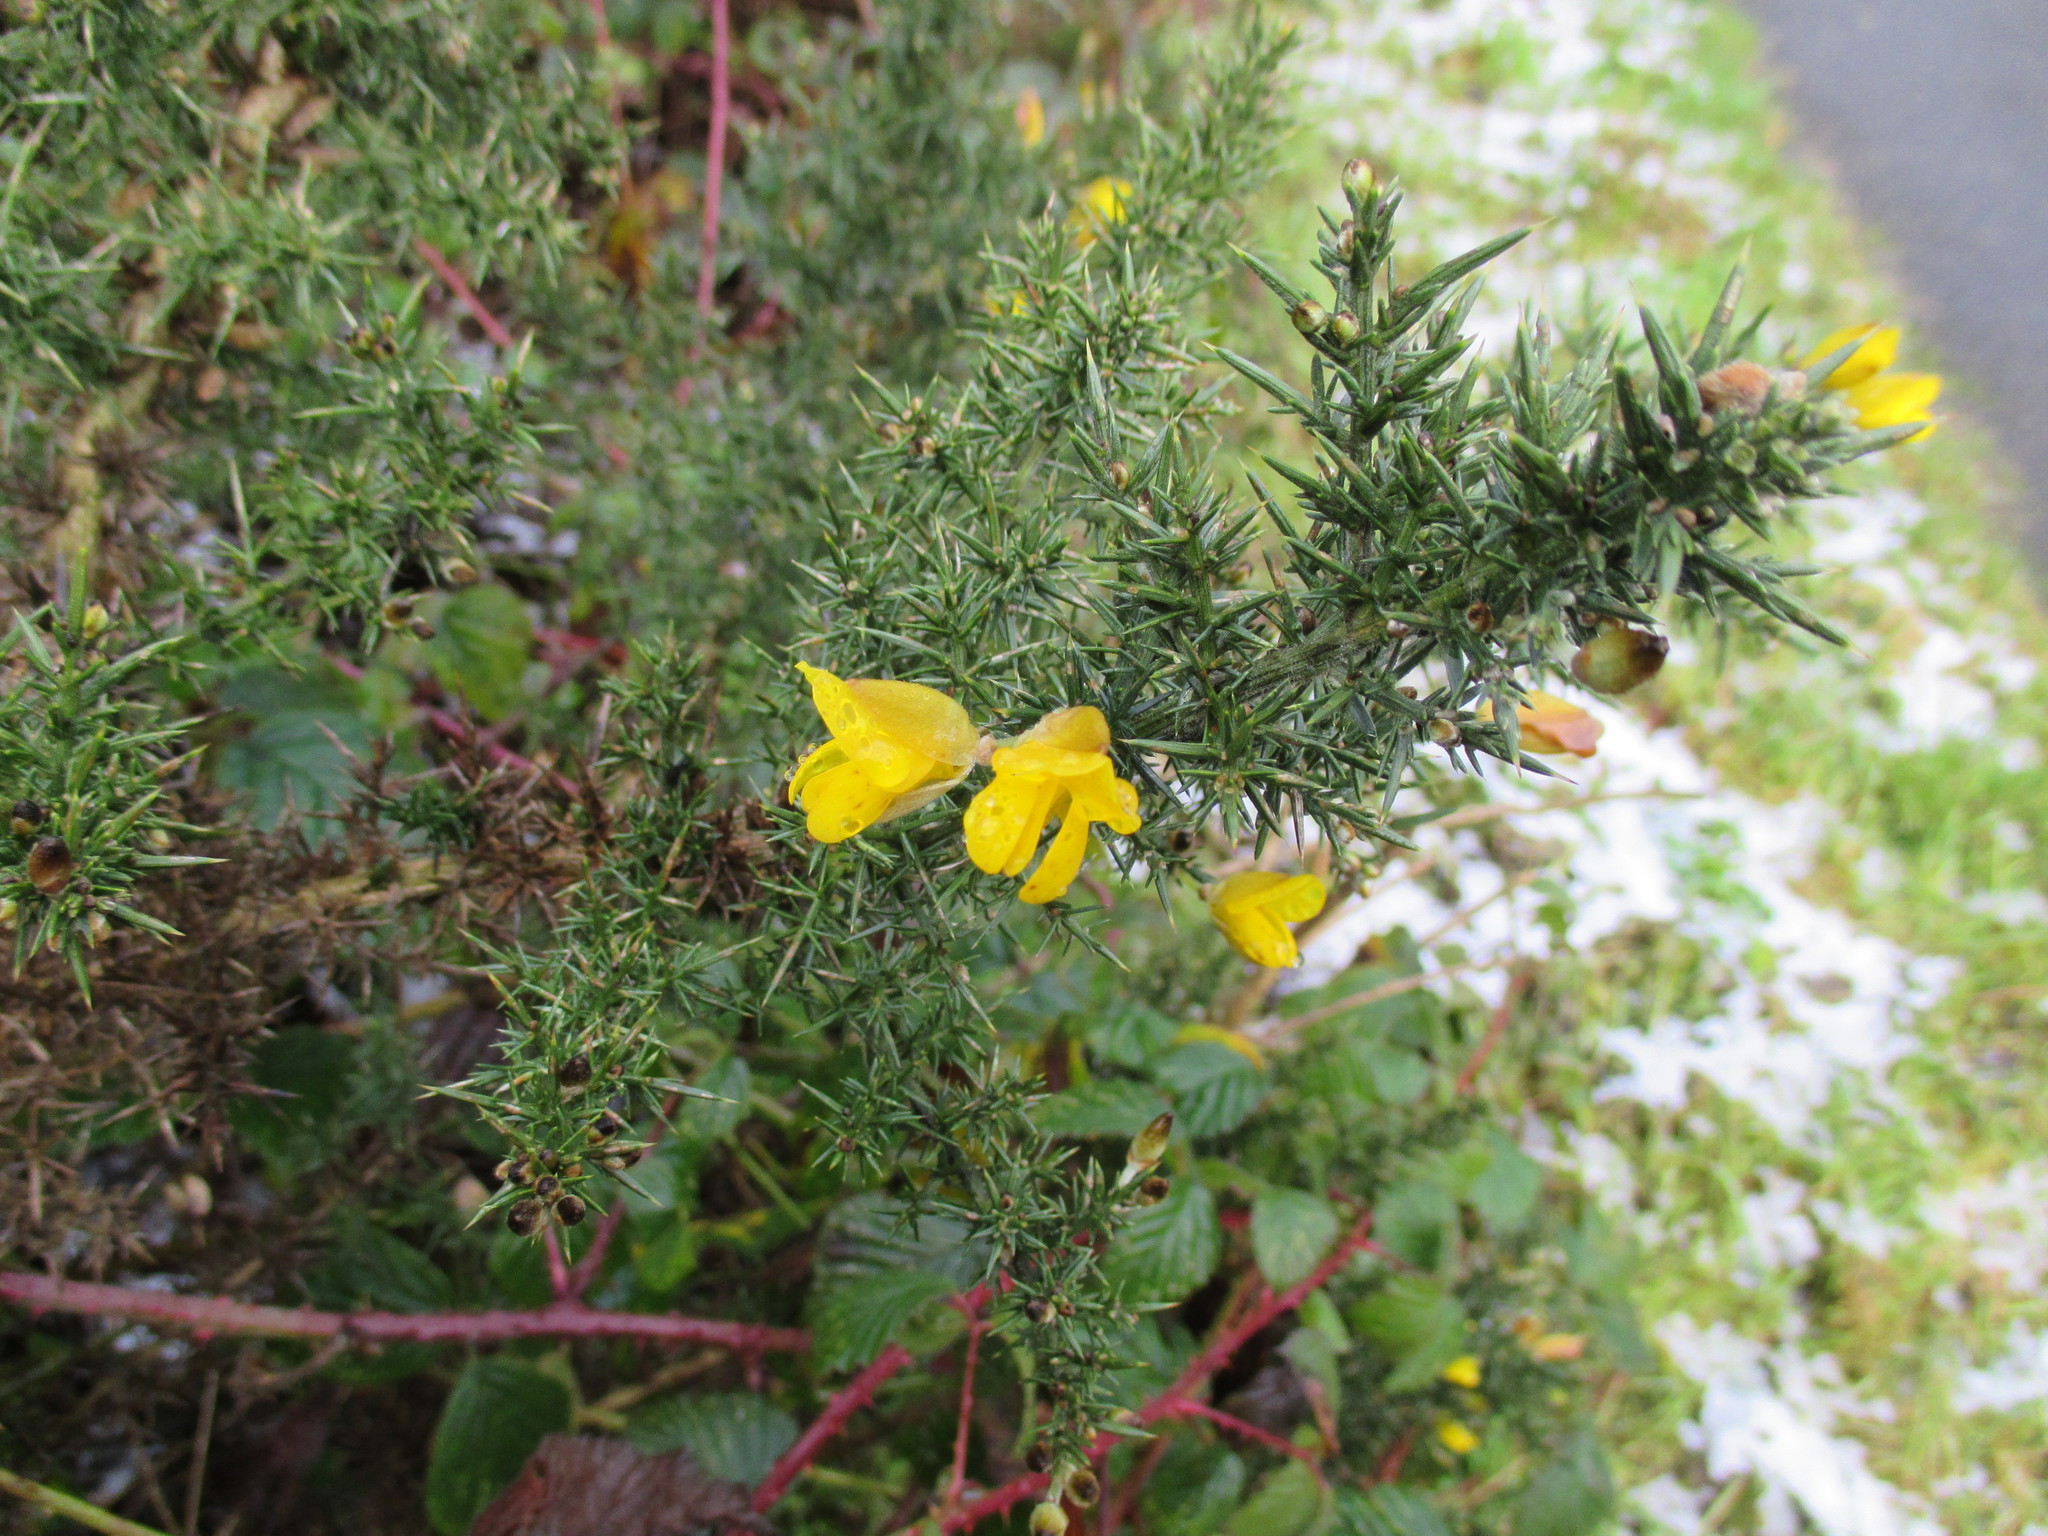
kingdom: Plantae
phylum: Tracheophyta
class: Magnoliopsida
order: Fabales
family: Fabaceae
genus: Ulex
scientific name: Ulex europaeus
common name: Common gorse
